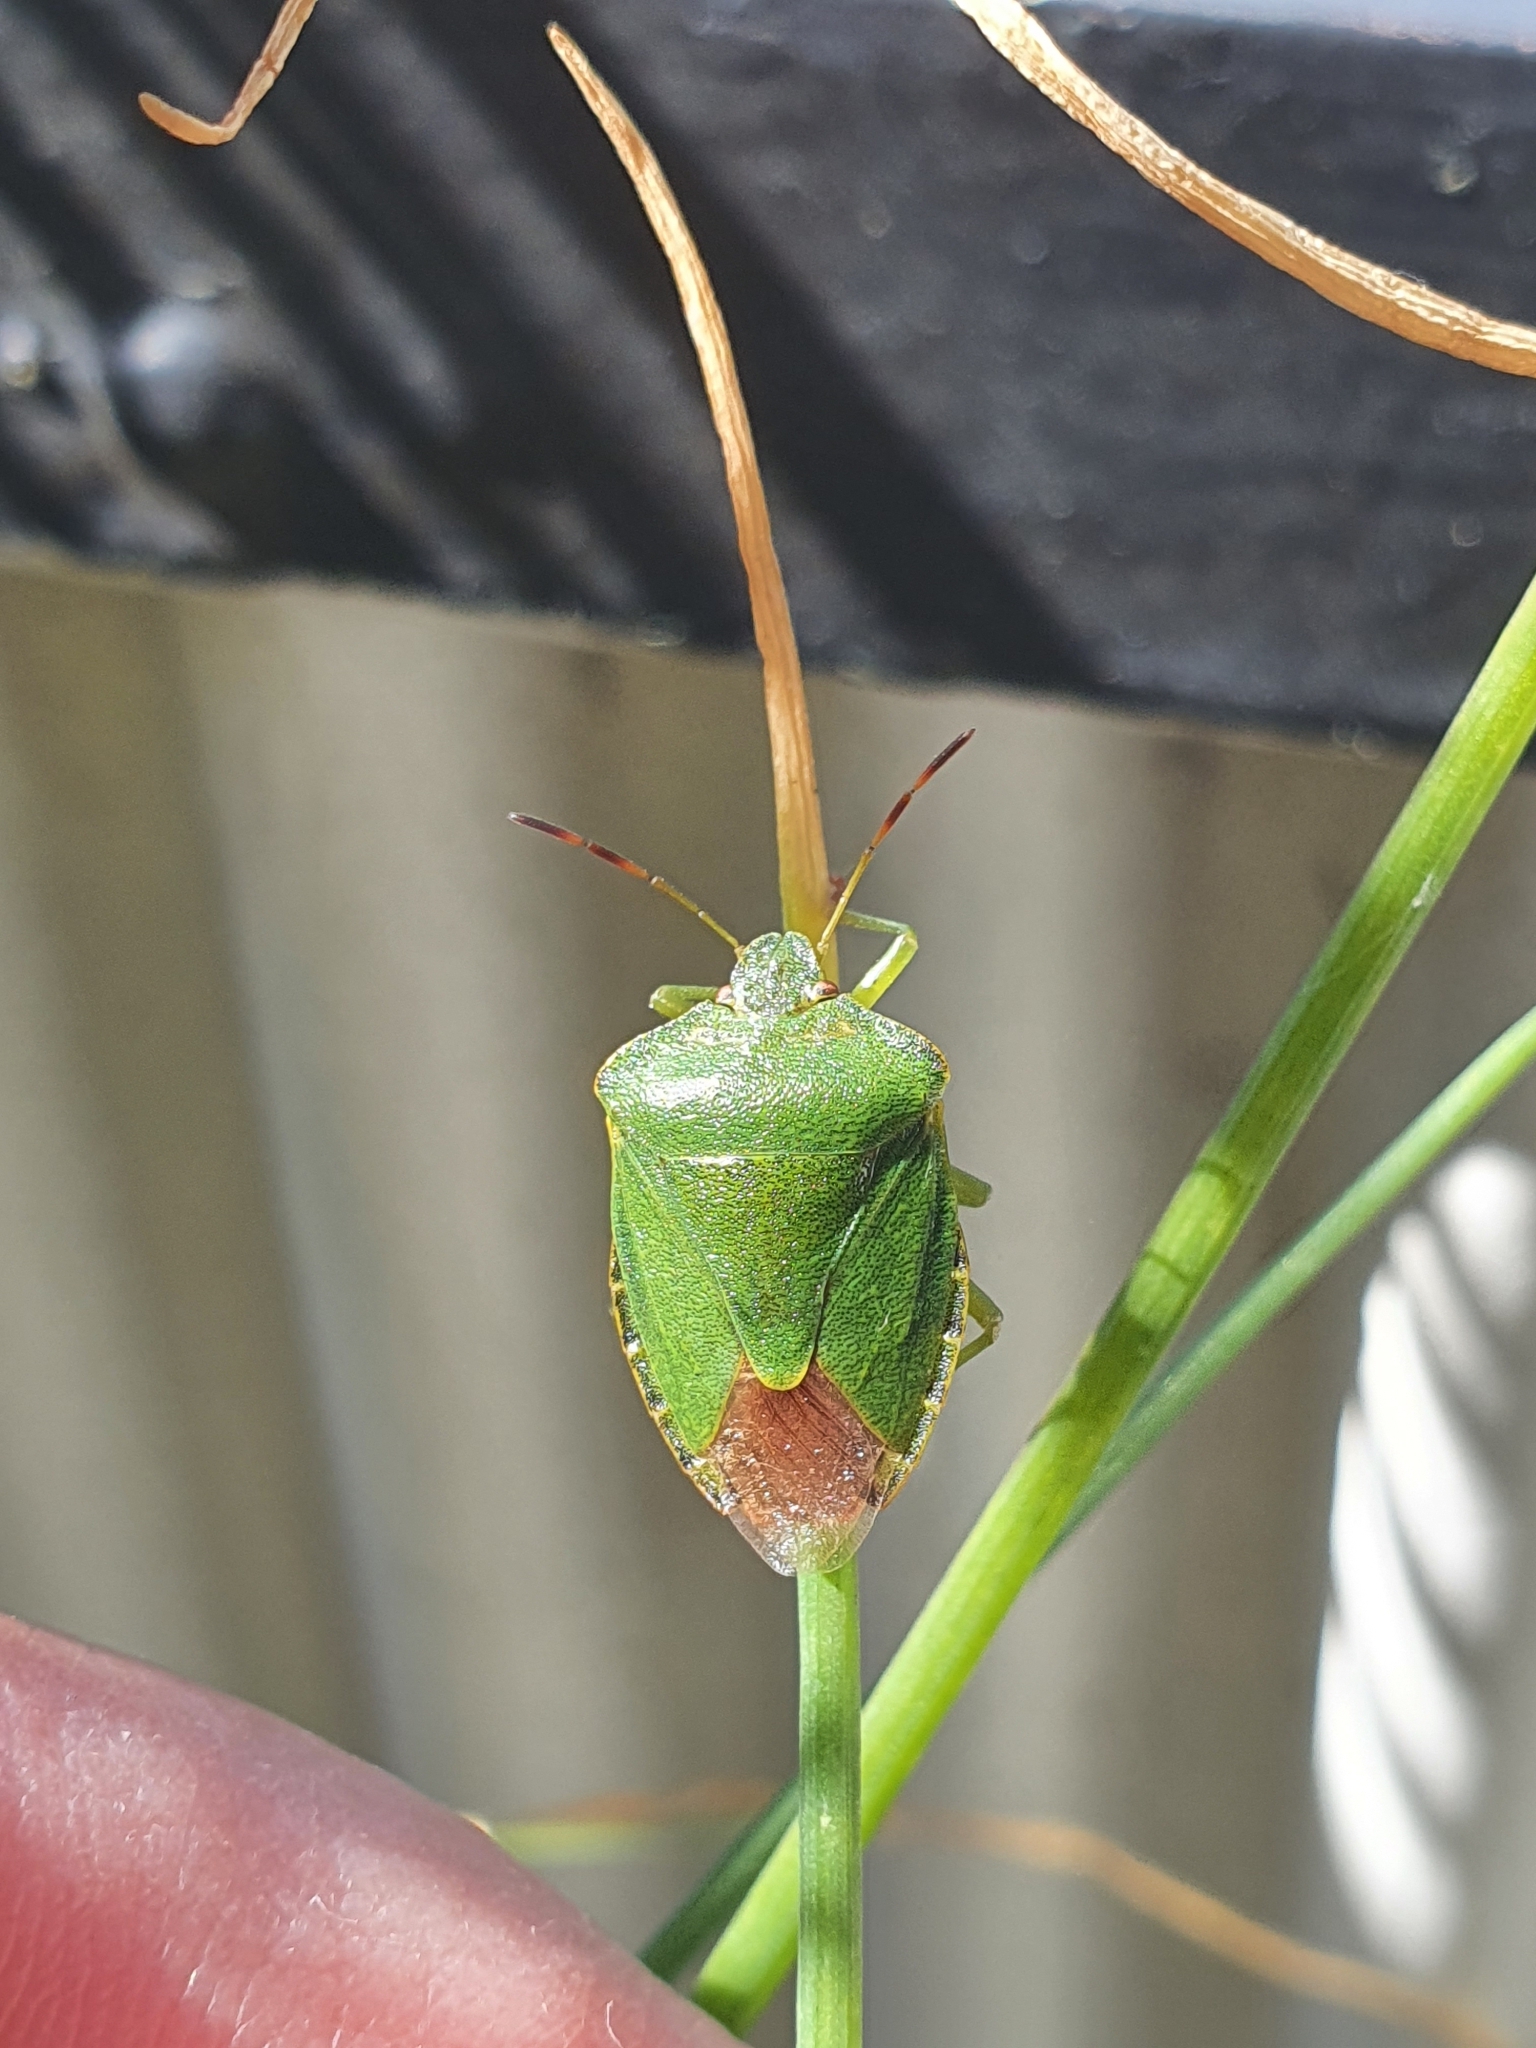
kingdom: Animalia
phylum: Arthropoda
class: Insecta
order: Hemiptera
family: Pentatomidae
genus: Palomena
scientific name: Palomena prasina
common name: Green shieldbug
